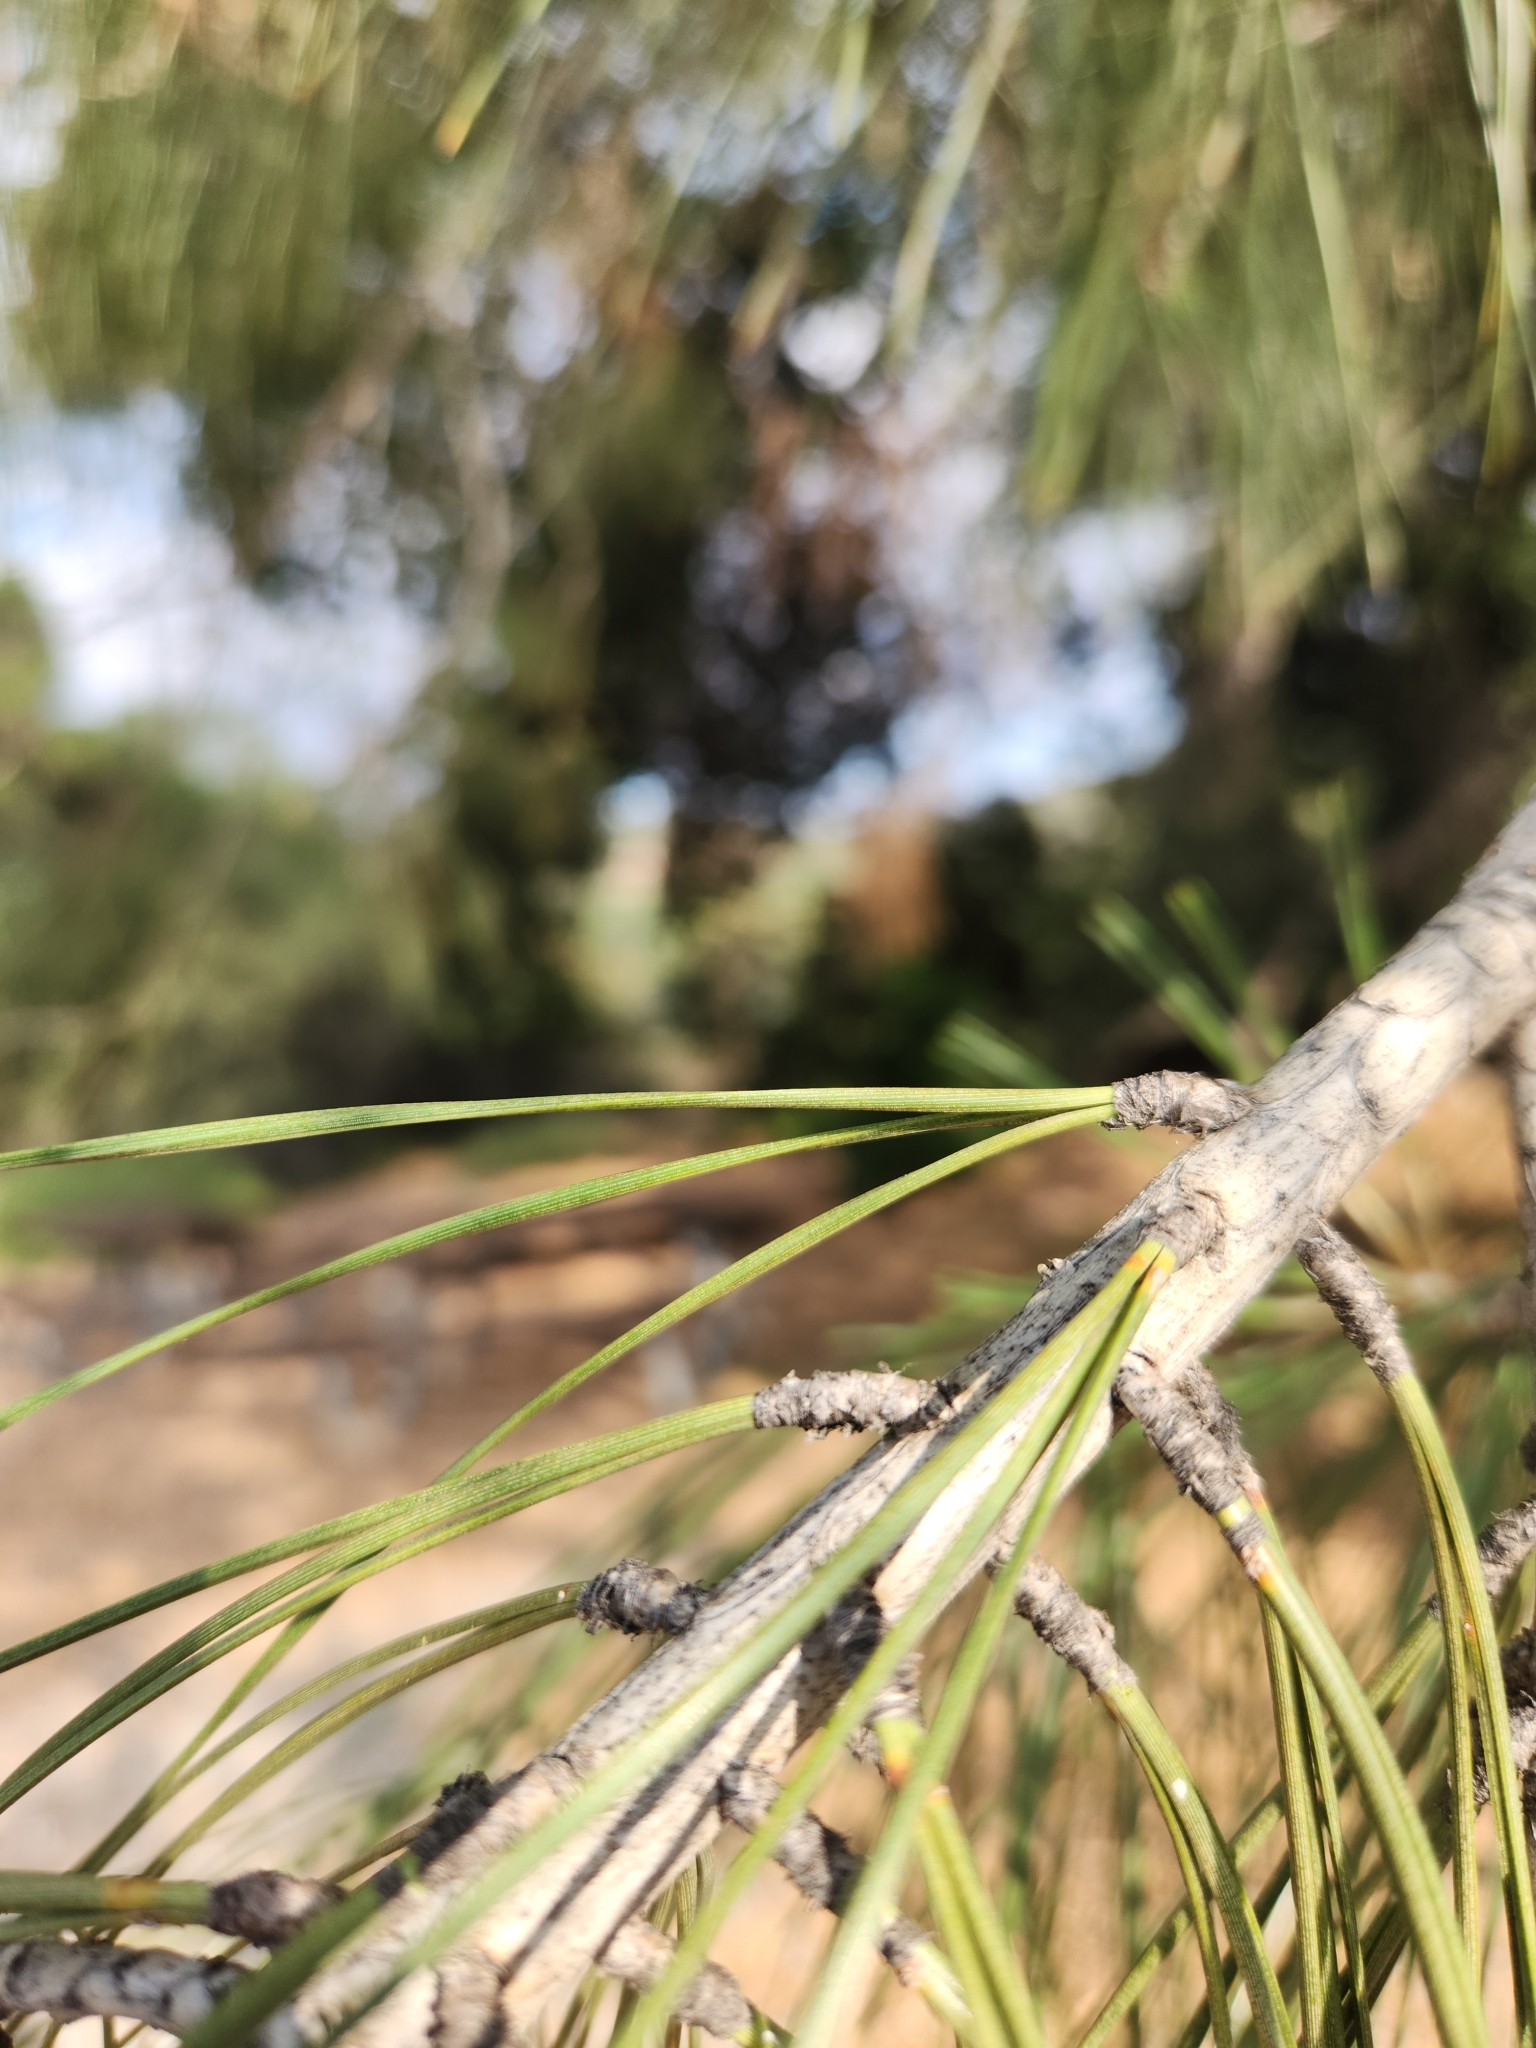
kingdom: Plantae
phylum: Tracheophyta
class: Pinopsida
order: Pinales
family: Pinaceae
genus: Pinus
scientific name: Pinus sabiniana
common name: Bull pine
